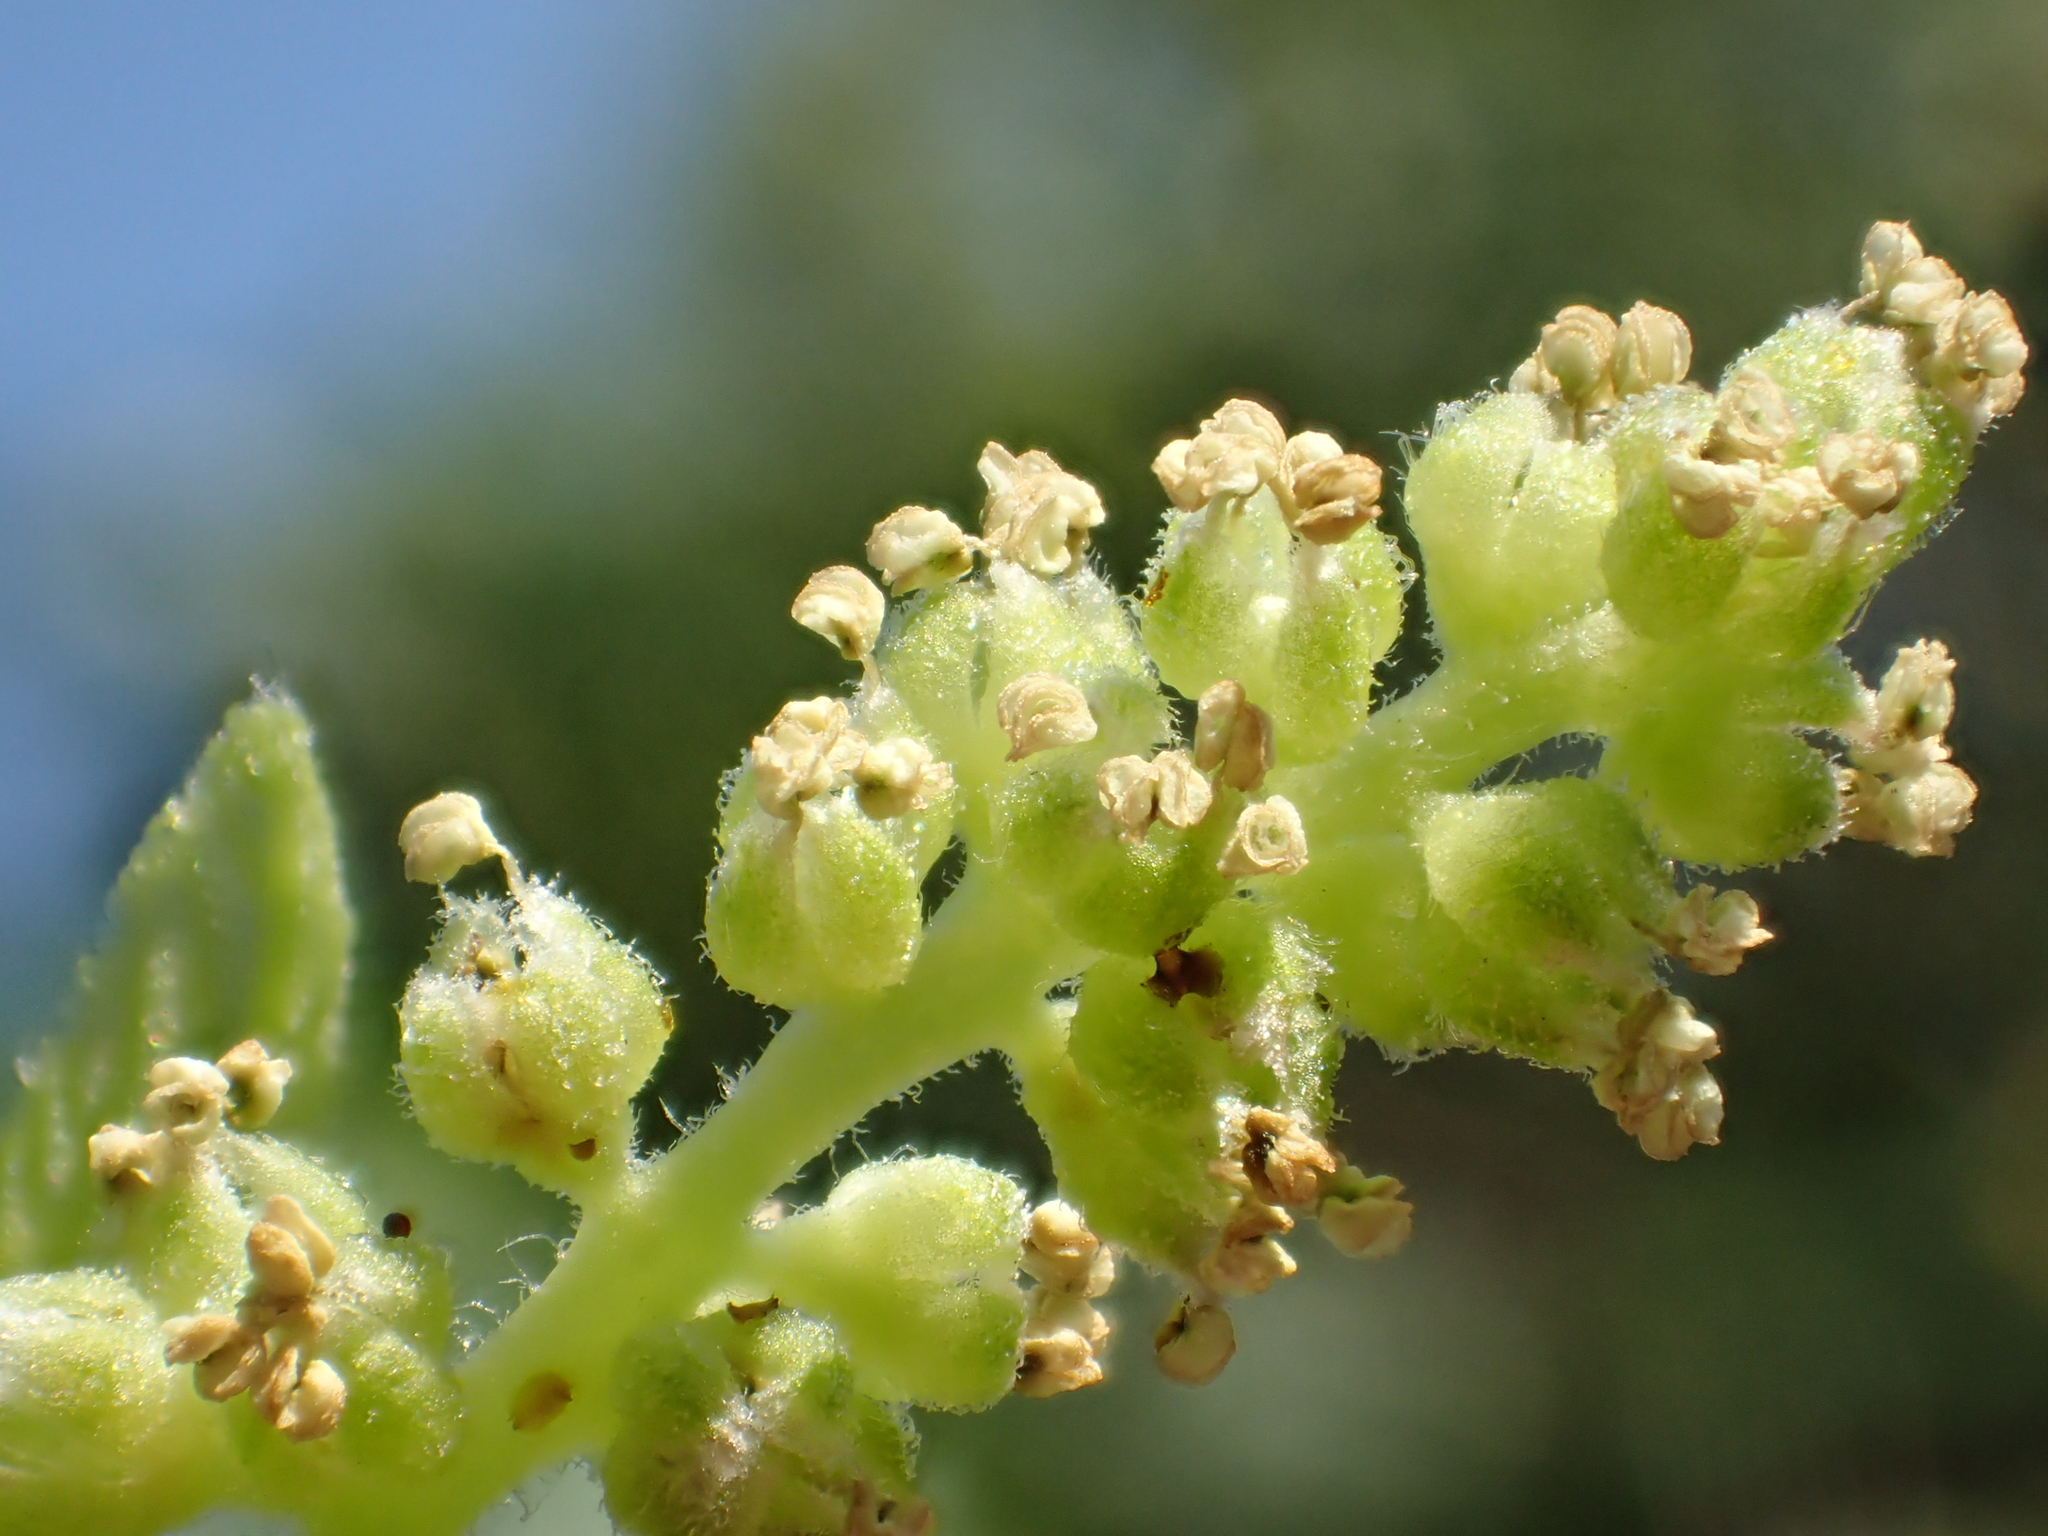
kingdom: Plantae
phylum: Tracheophyta
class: Magnoliopsida
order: Rosales
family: Moraceae
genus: Morus
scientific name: Morus indica
